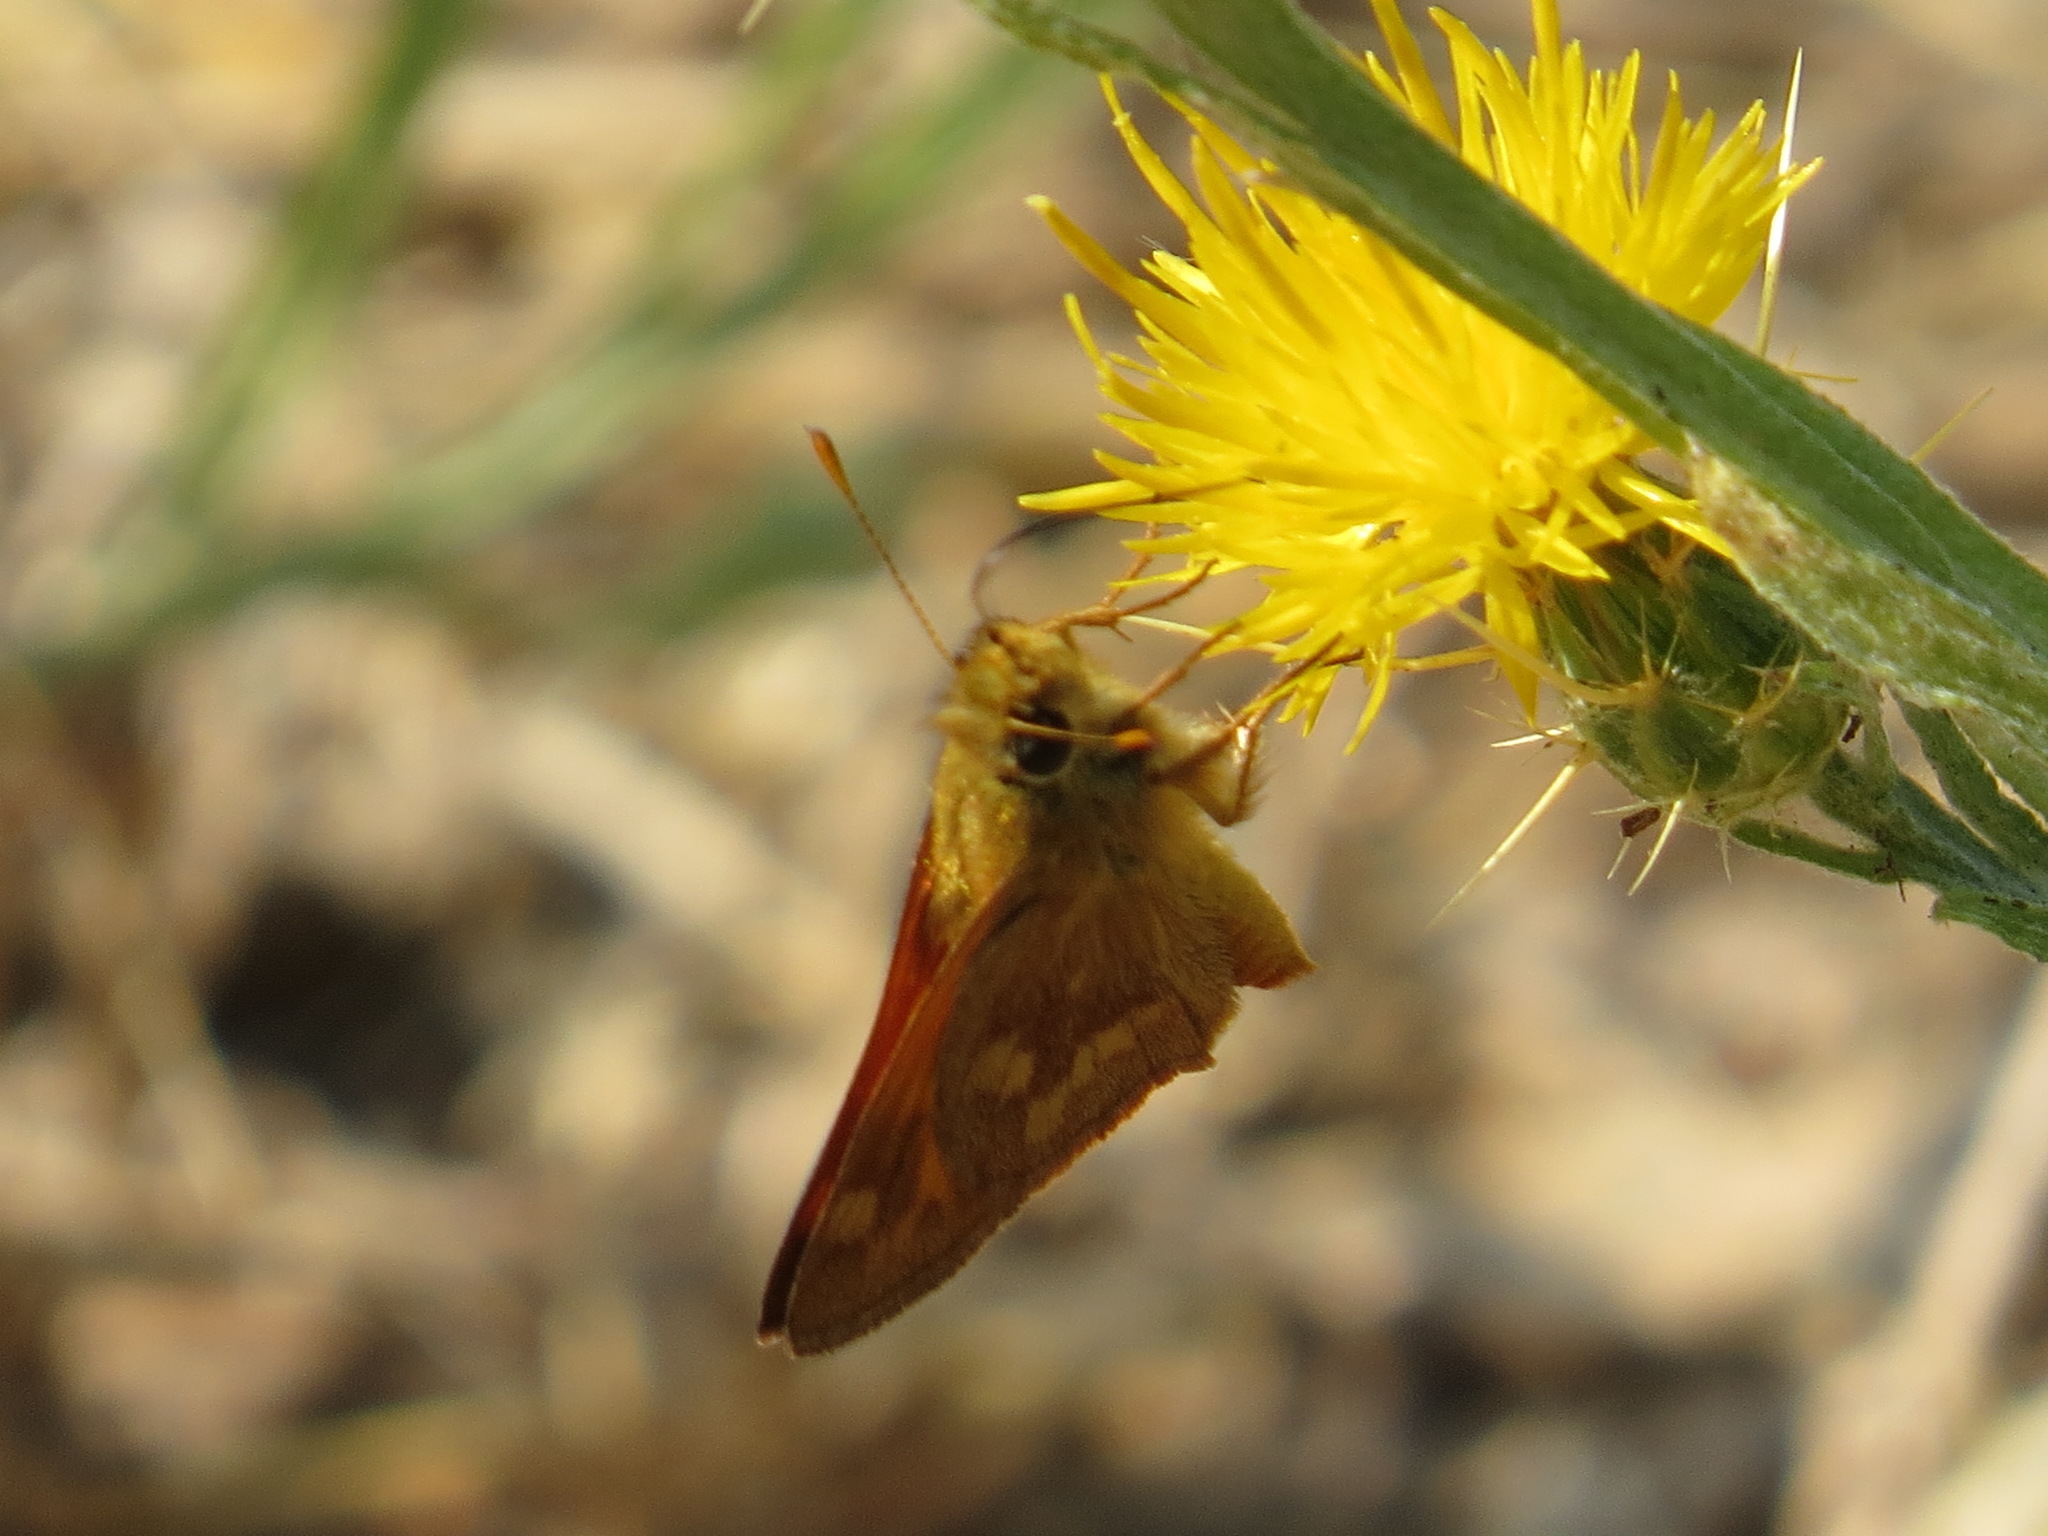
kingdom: Animalia
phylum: Arthropoda
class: Insecta
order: Lepidoptera
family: Hesperiidae
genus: Ochlodes
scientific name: Ochlodes sylvanoides
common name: Woodland skipper
